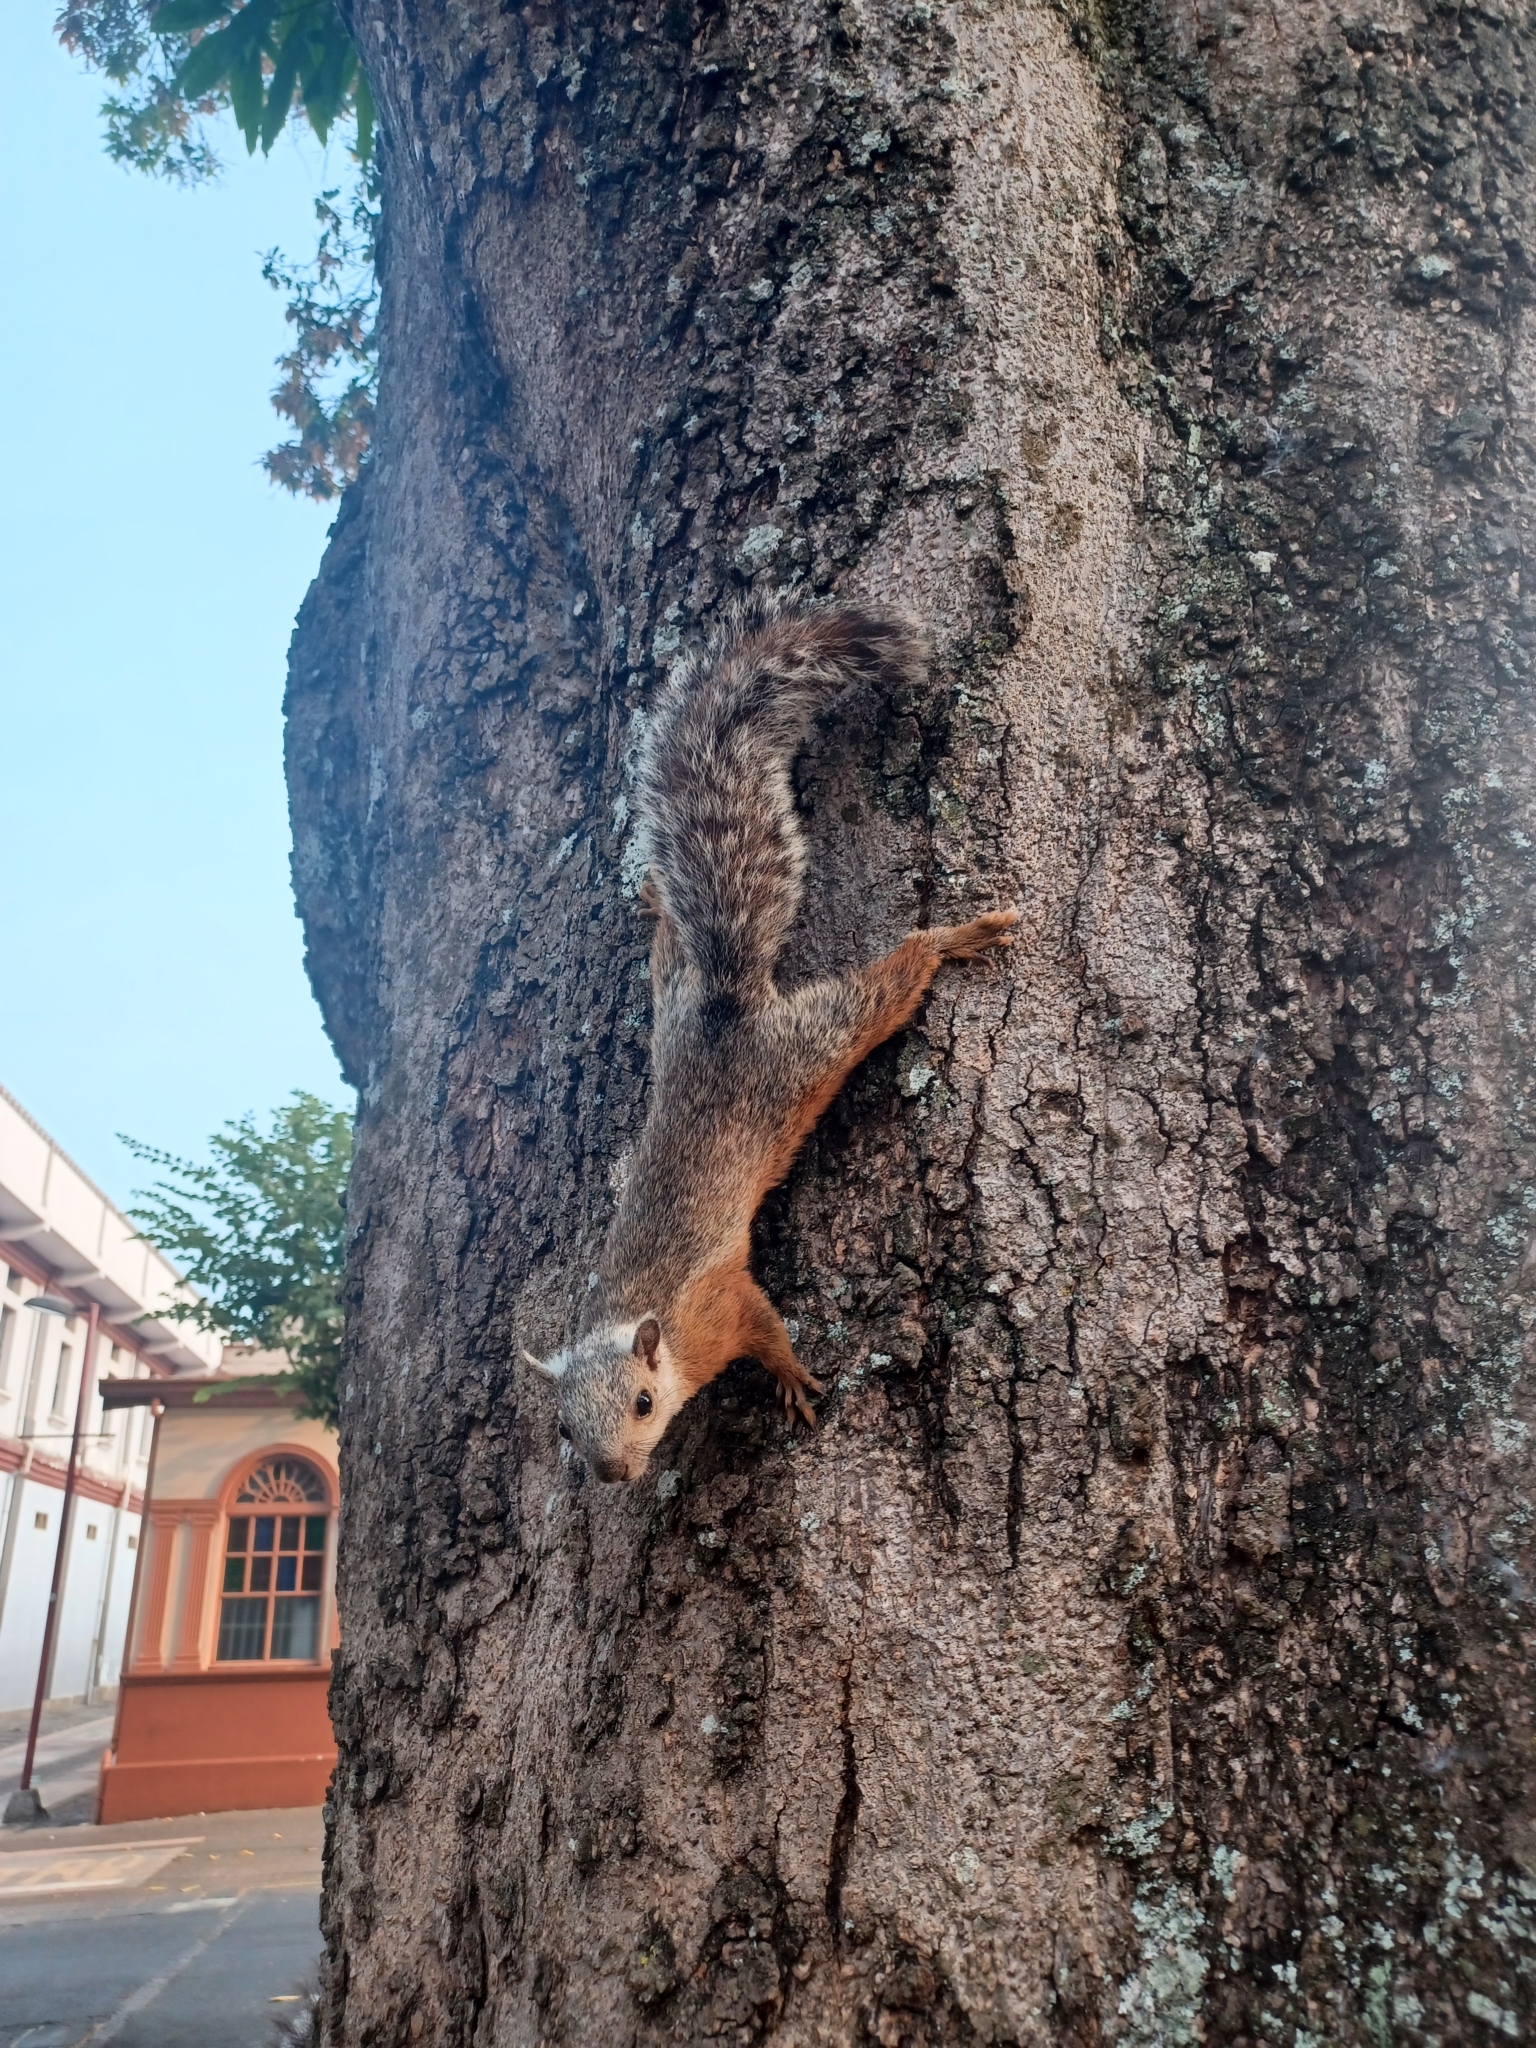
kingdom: Animalia
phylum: Chordata
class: Mammalia
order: Rodentia
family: Sciuridae
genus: Sciurus
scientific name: Sciurus variegatoides
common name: Variegated squirrel
